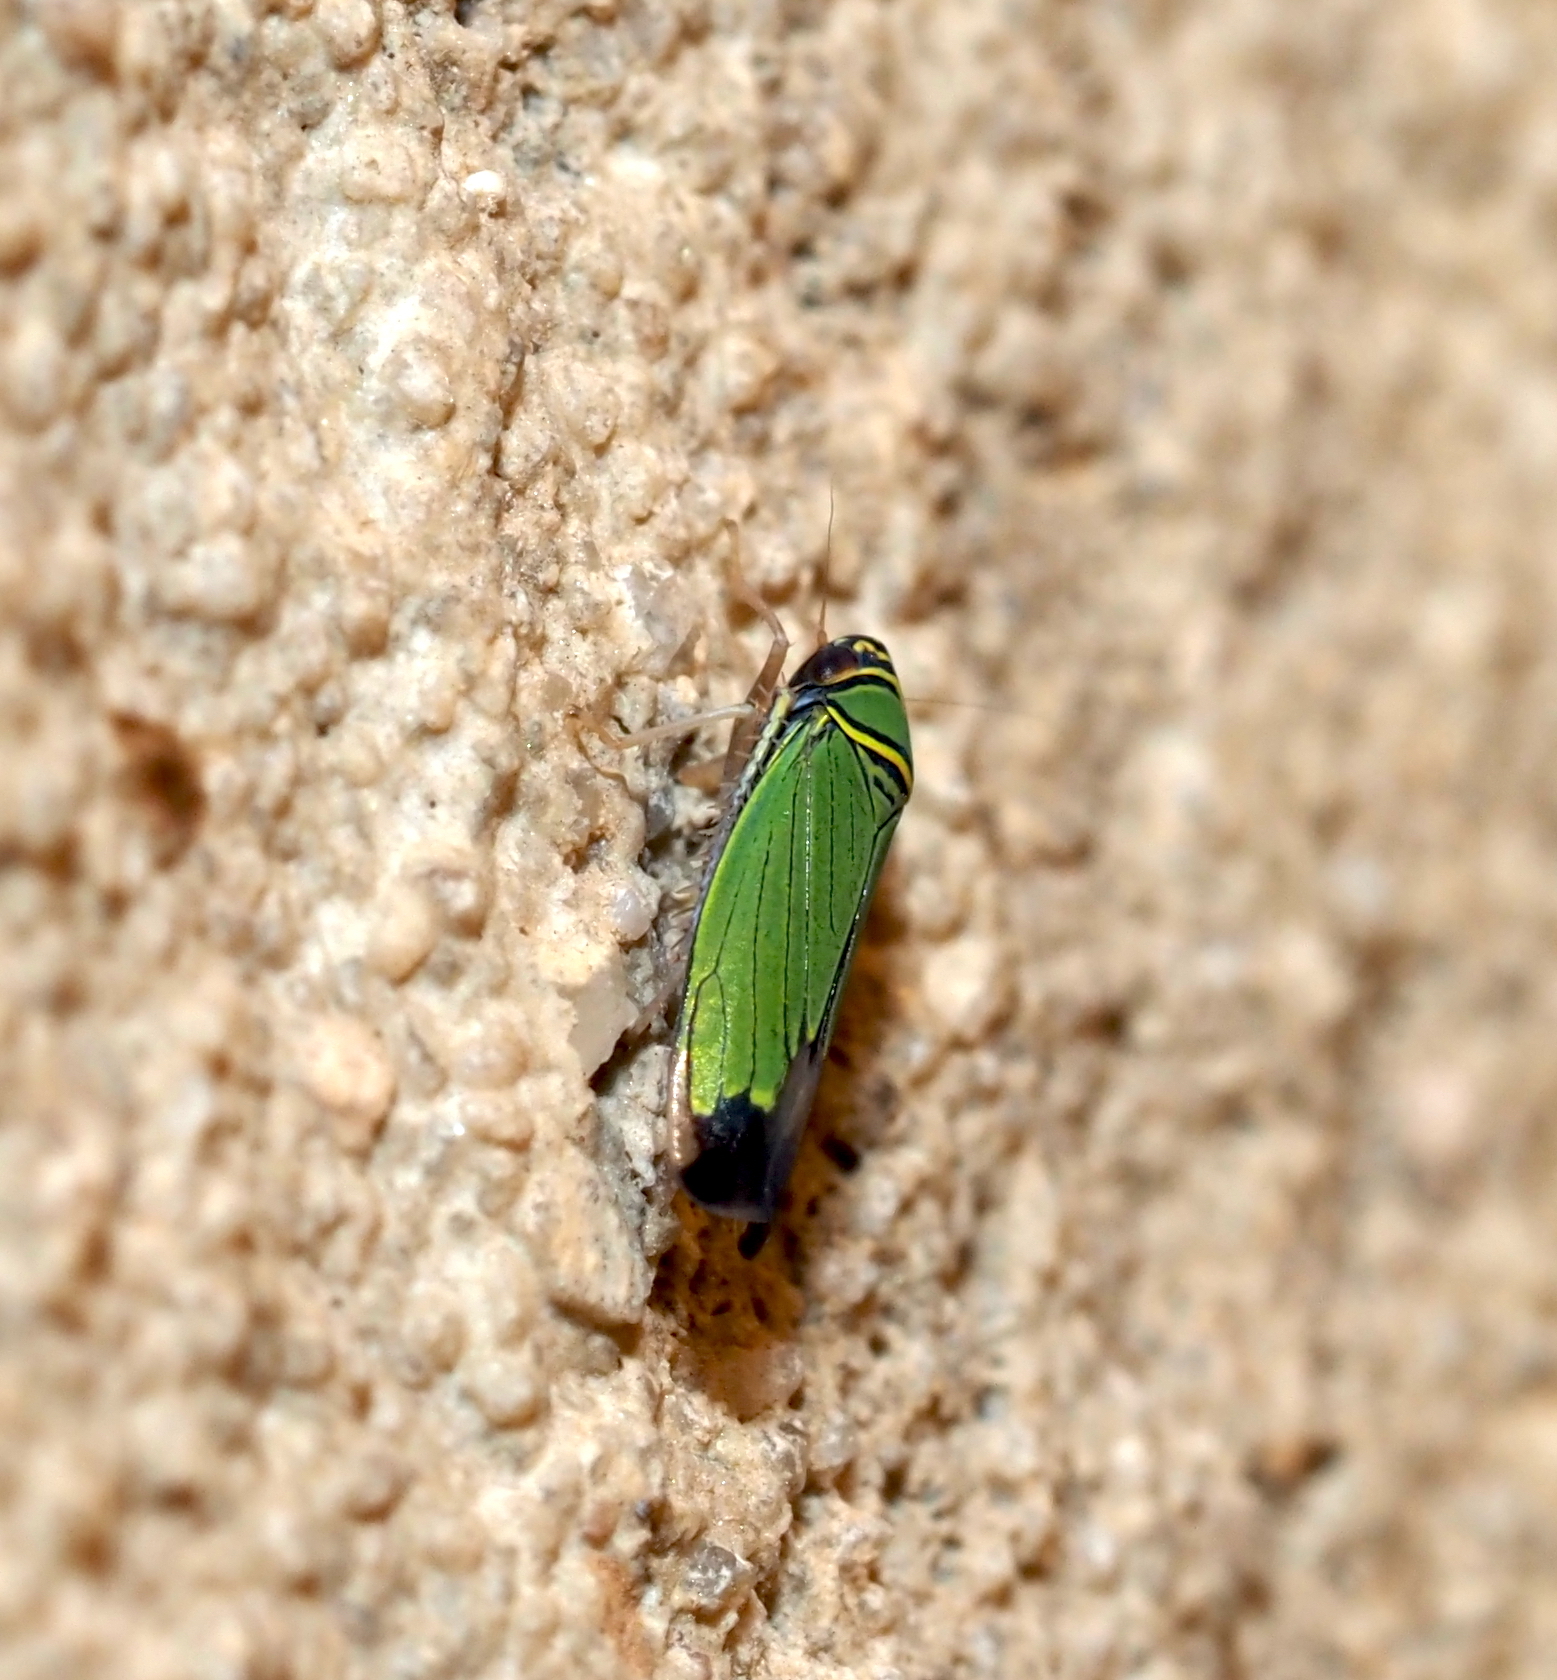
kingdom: Animalia
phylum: Arthropoda
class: Insecta
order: Hemiptera
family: Cicadellidae
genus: Tylozygus
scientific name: Tylozygus geometricus
